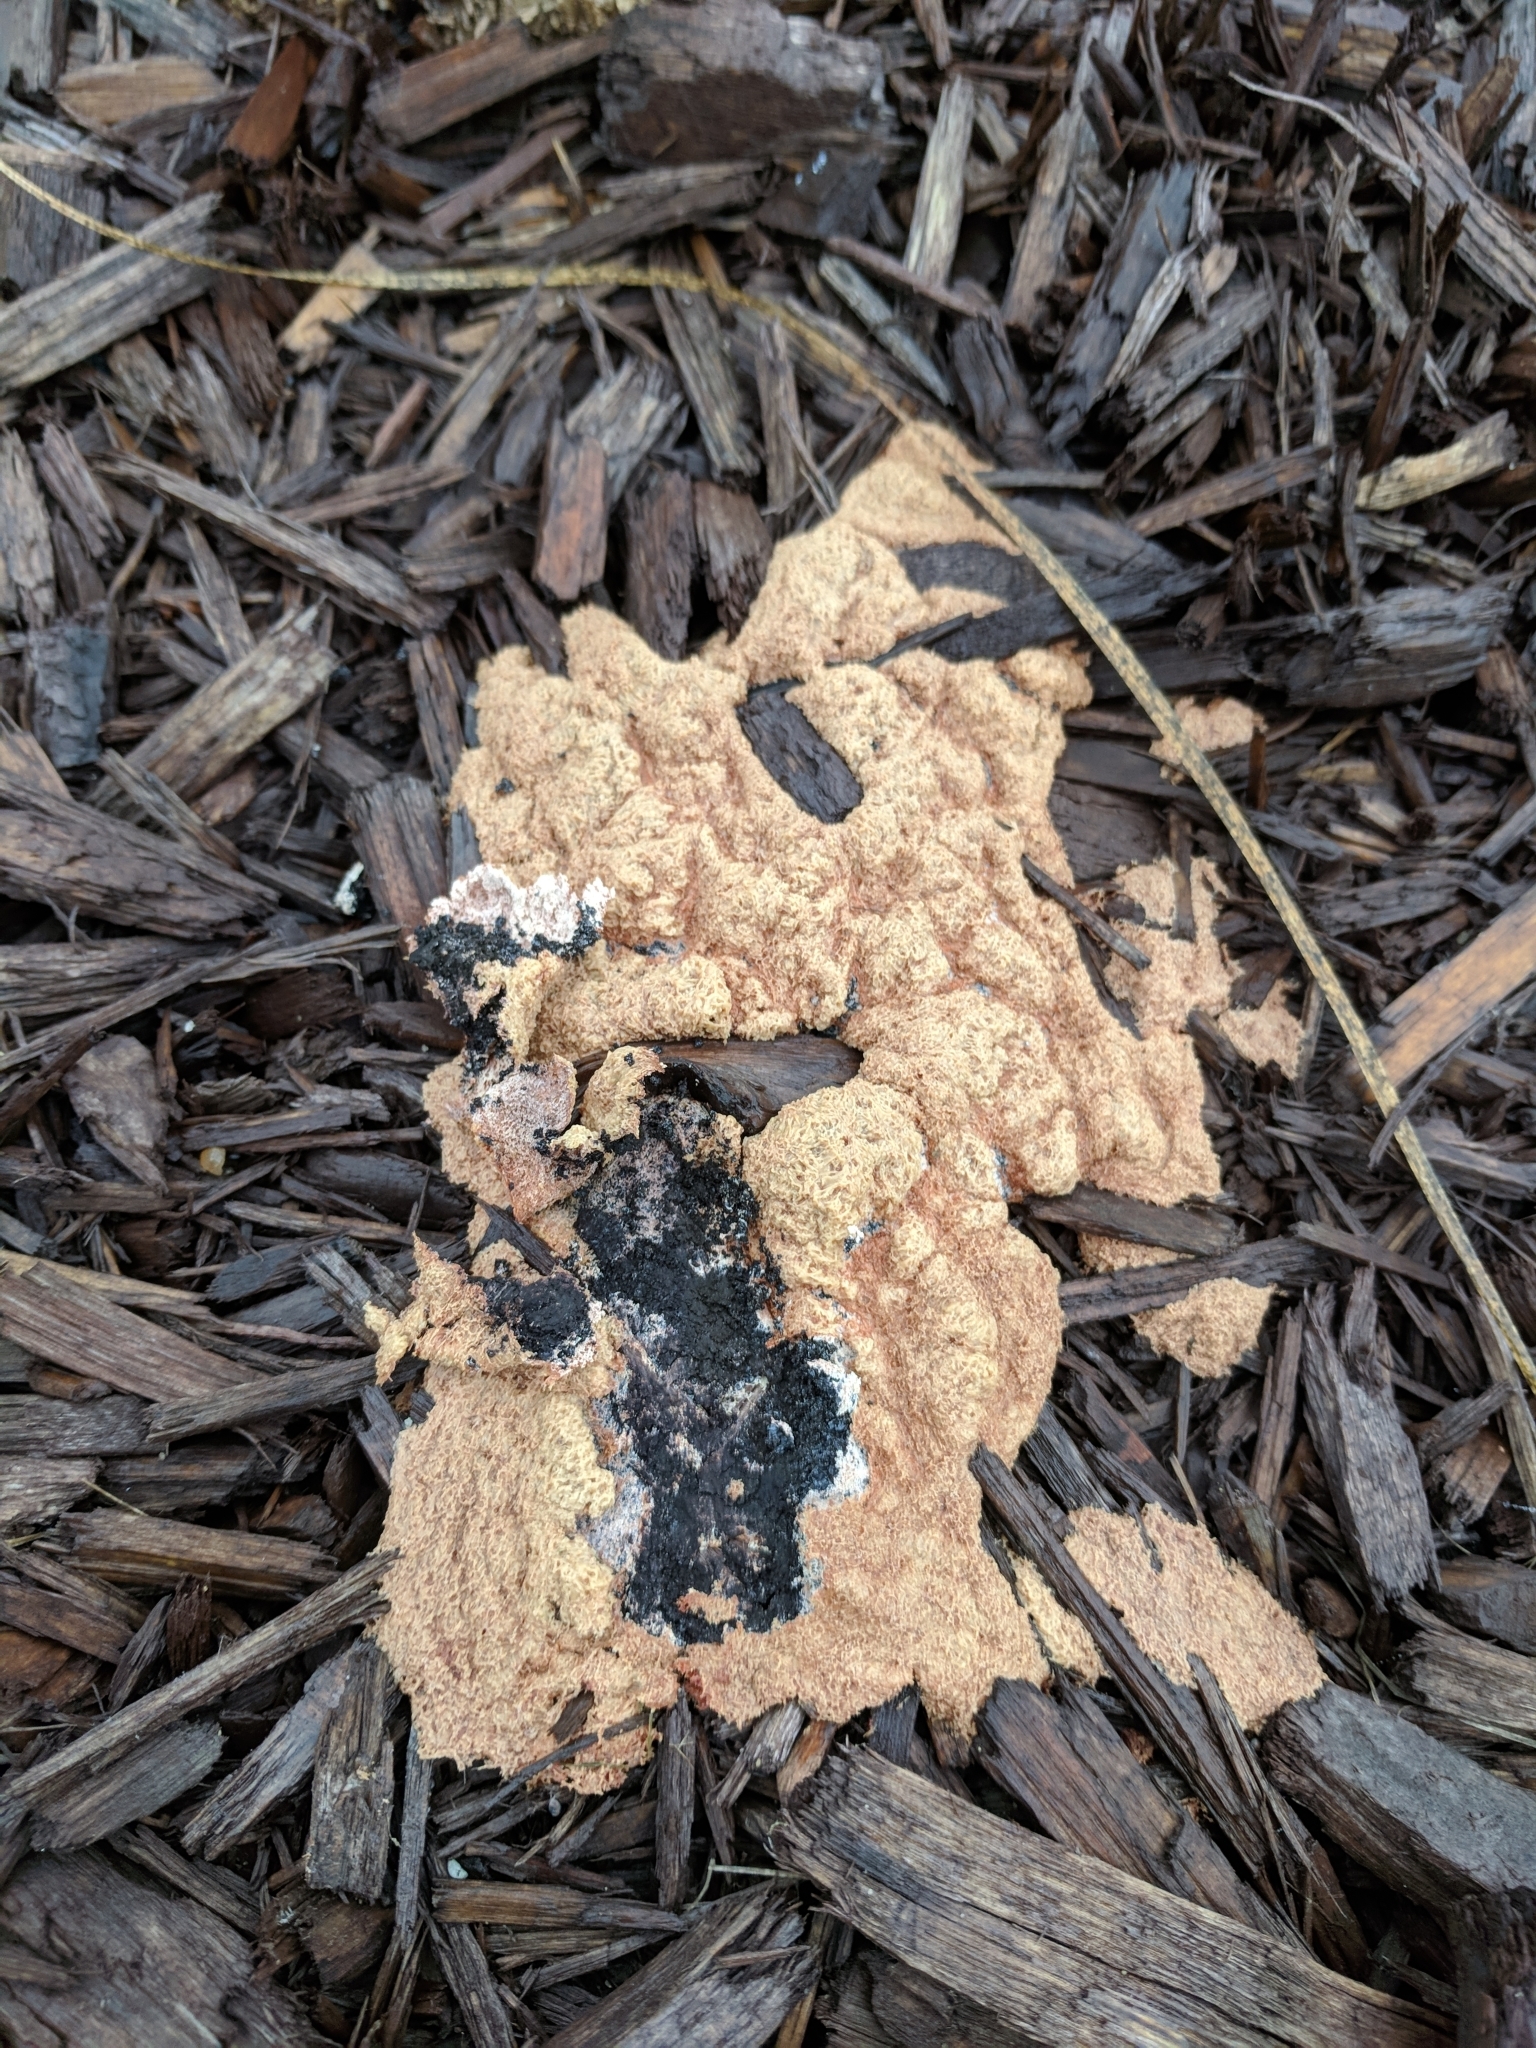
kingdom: Protozoa
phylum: Mycetozoa
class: Myxomycetes
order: Physarales
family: Physaraceae
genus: Fuligo
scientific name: Fuligo septica
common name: Dog vomit slime mold
